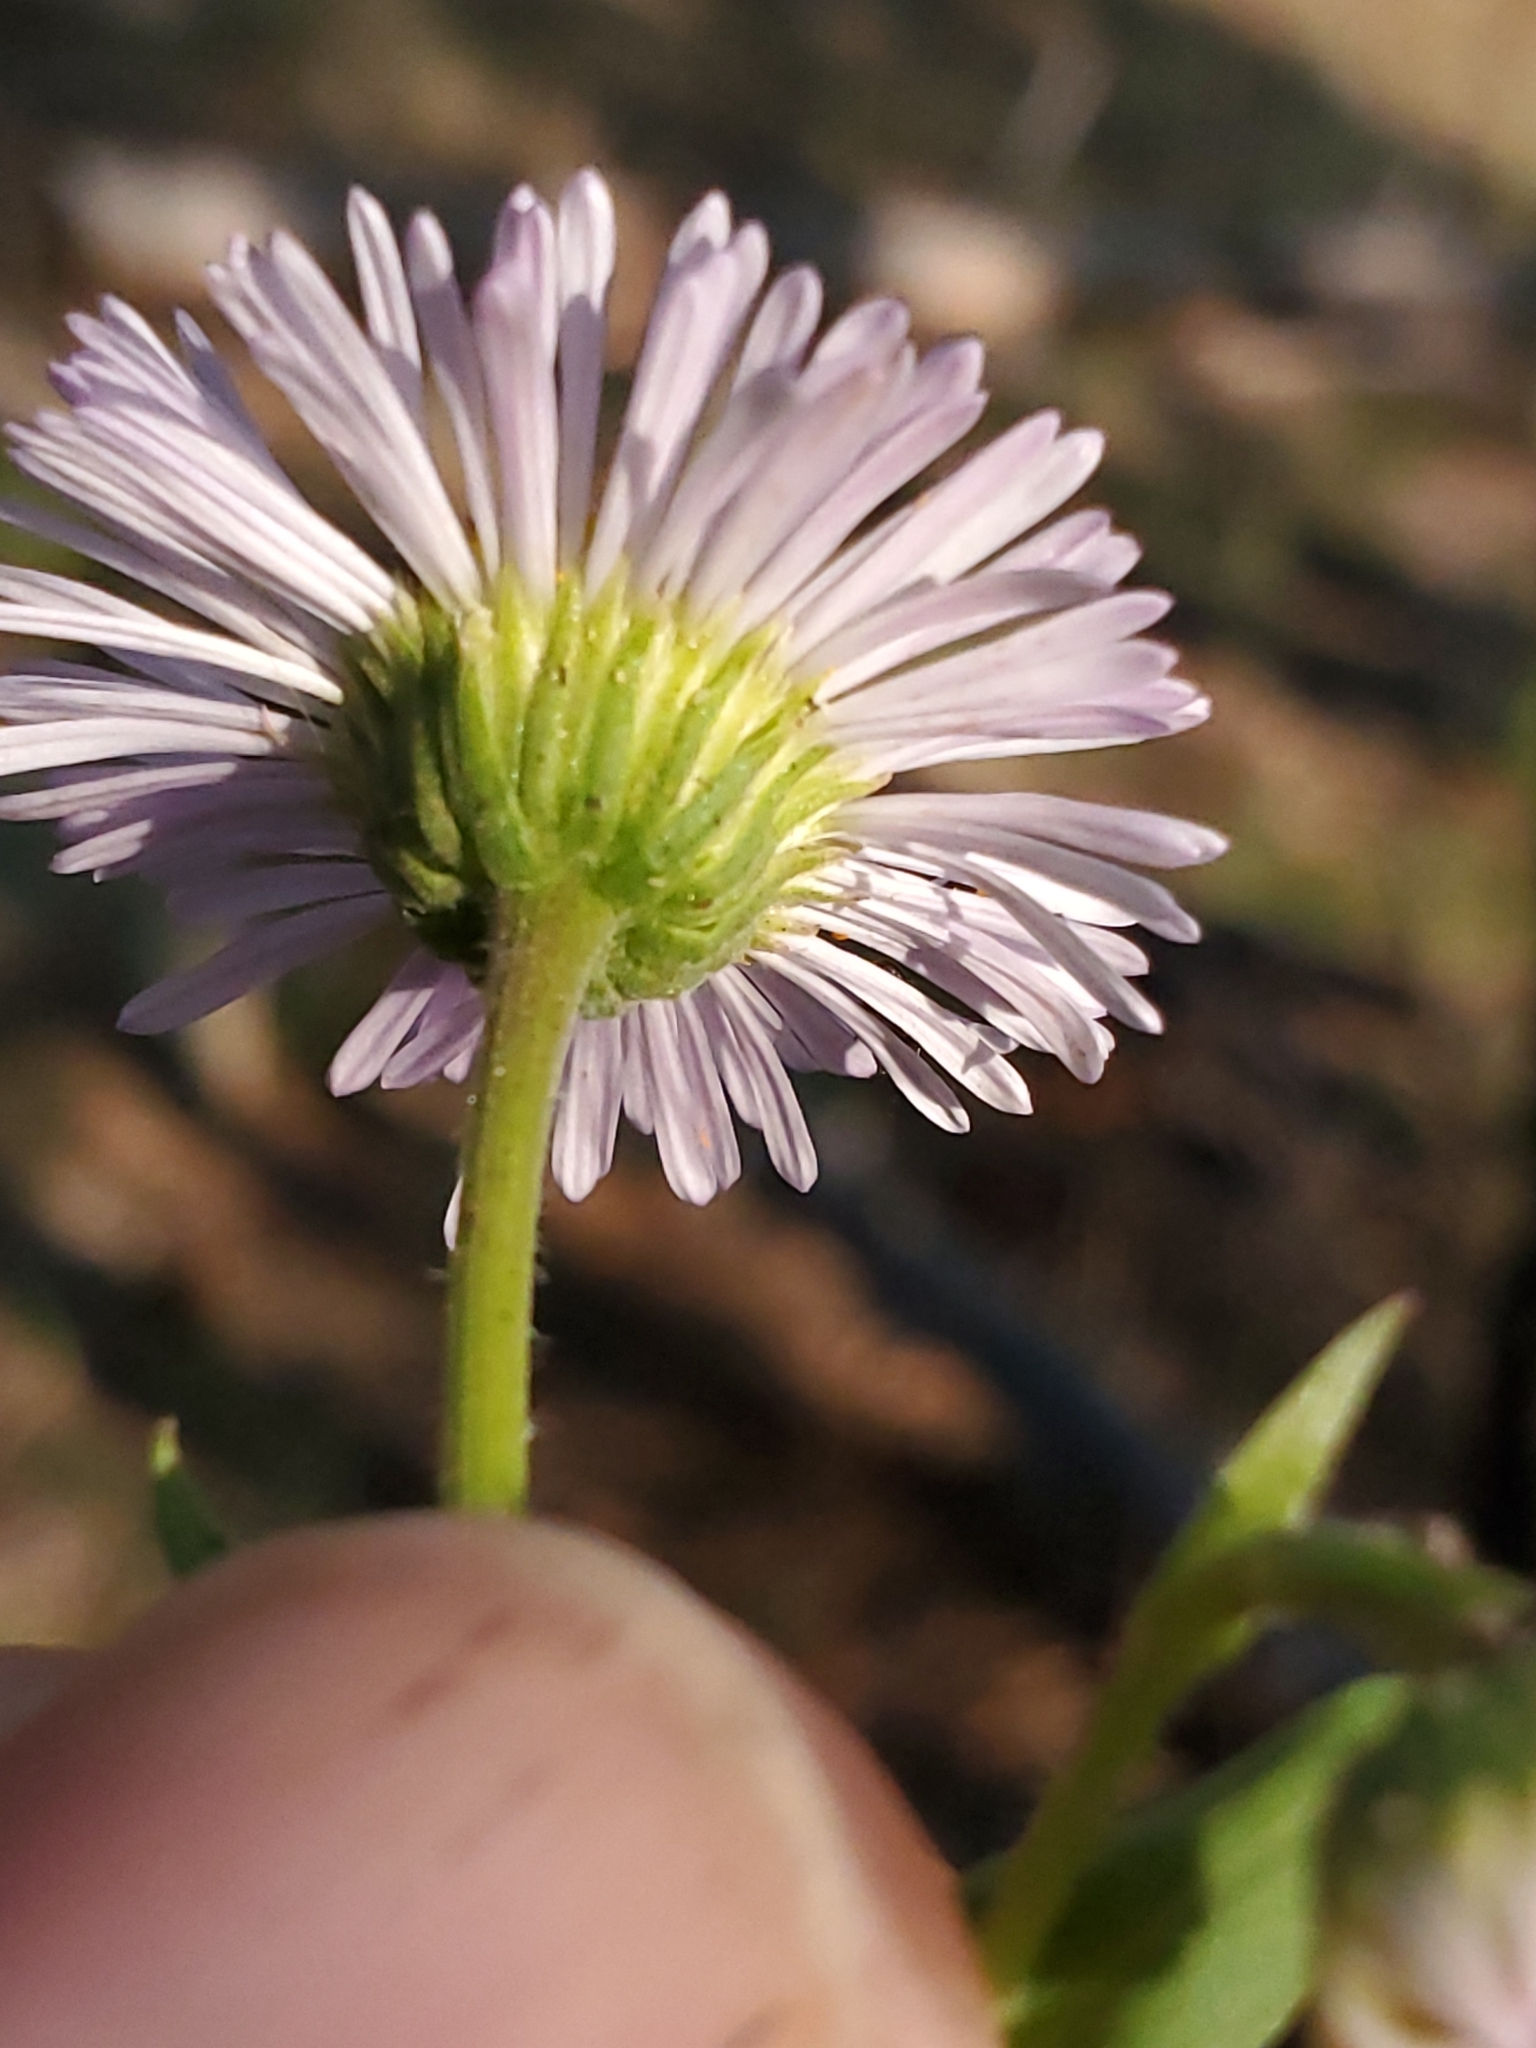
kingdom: Plantae
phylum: Tracheophyta
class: Magnoliopsida
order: Asterales
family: Asteraceae
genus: Erigeron
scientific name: Erigeron speciosus
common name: Aspen fleabane
